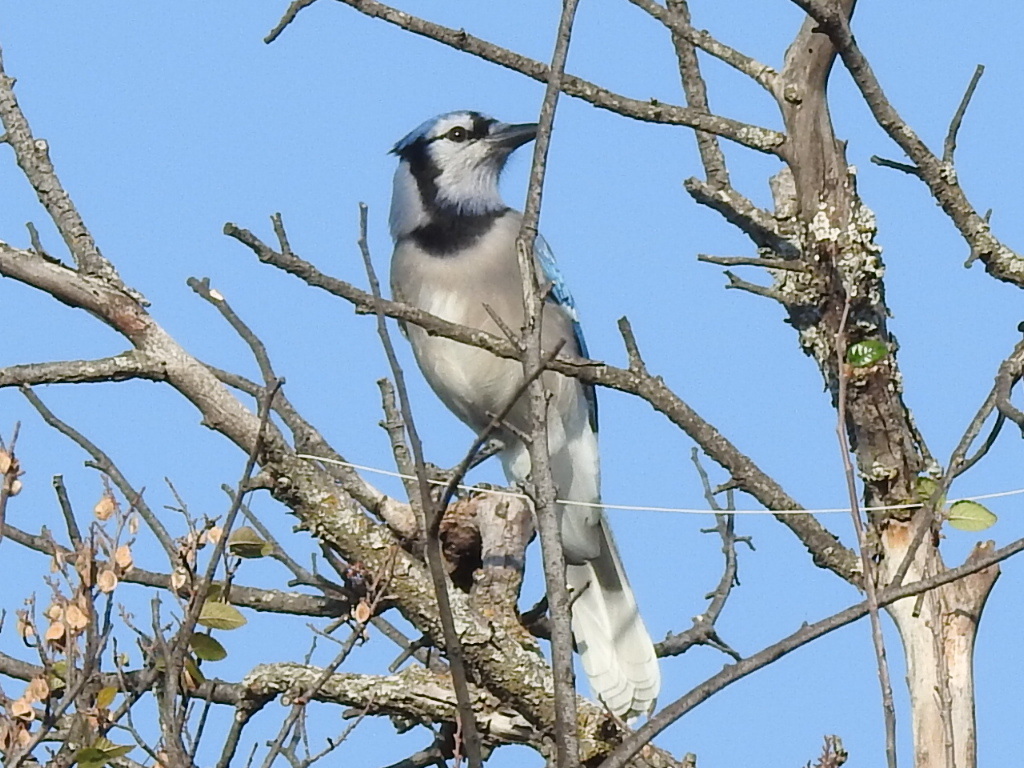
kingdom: Animalia
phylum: Chordata
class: Aves
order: Passeriformes
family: Corvidae
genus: Cyanocitta
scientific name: Cyanocitta cristata
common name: Blue jay
